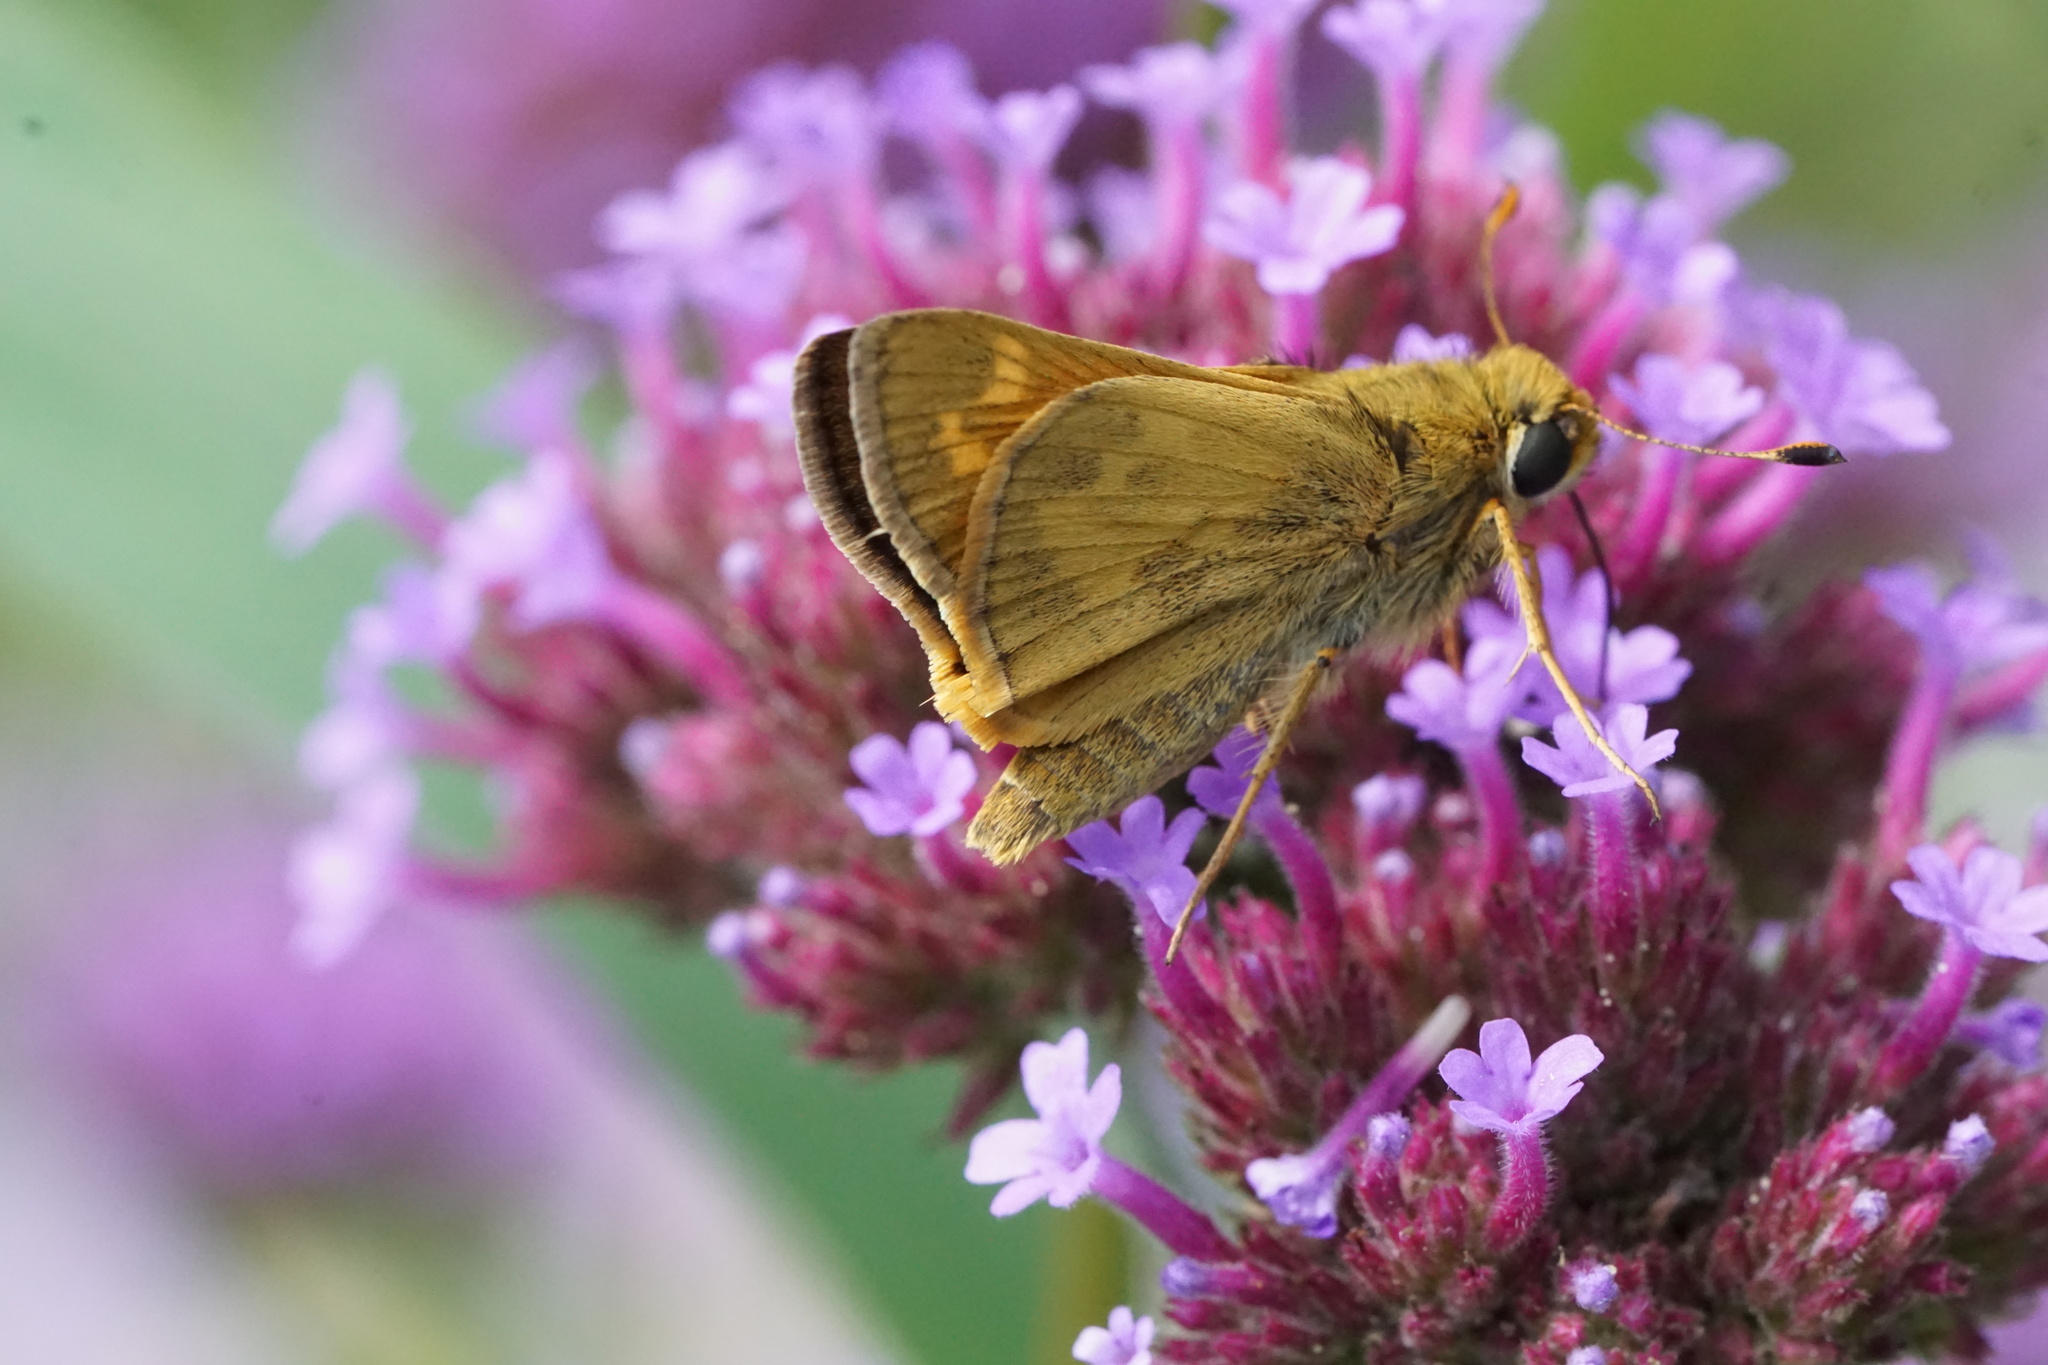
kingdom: Animalia
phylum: Arthropoda
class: Insecta
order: Lepidoptera
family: Hesperiidae
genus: Atalopedes
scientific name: Atalopedes
